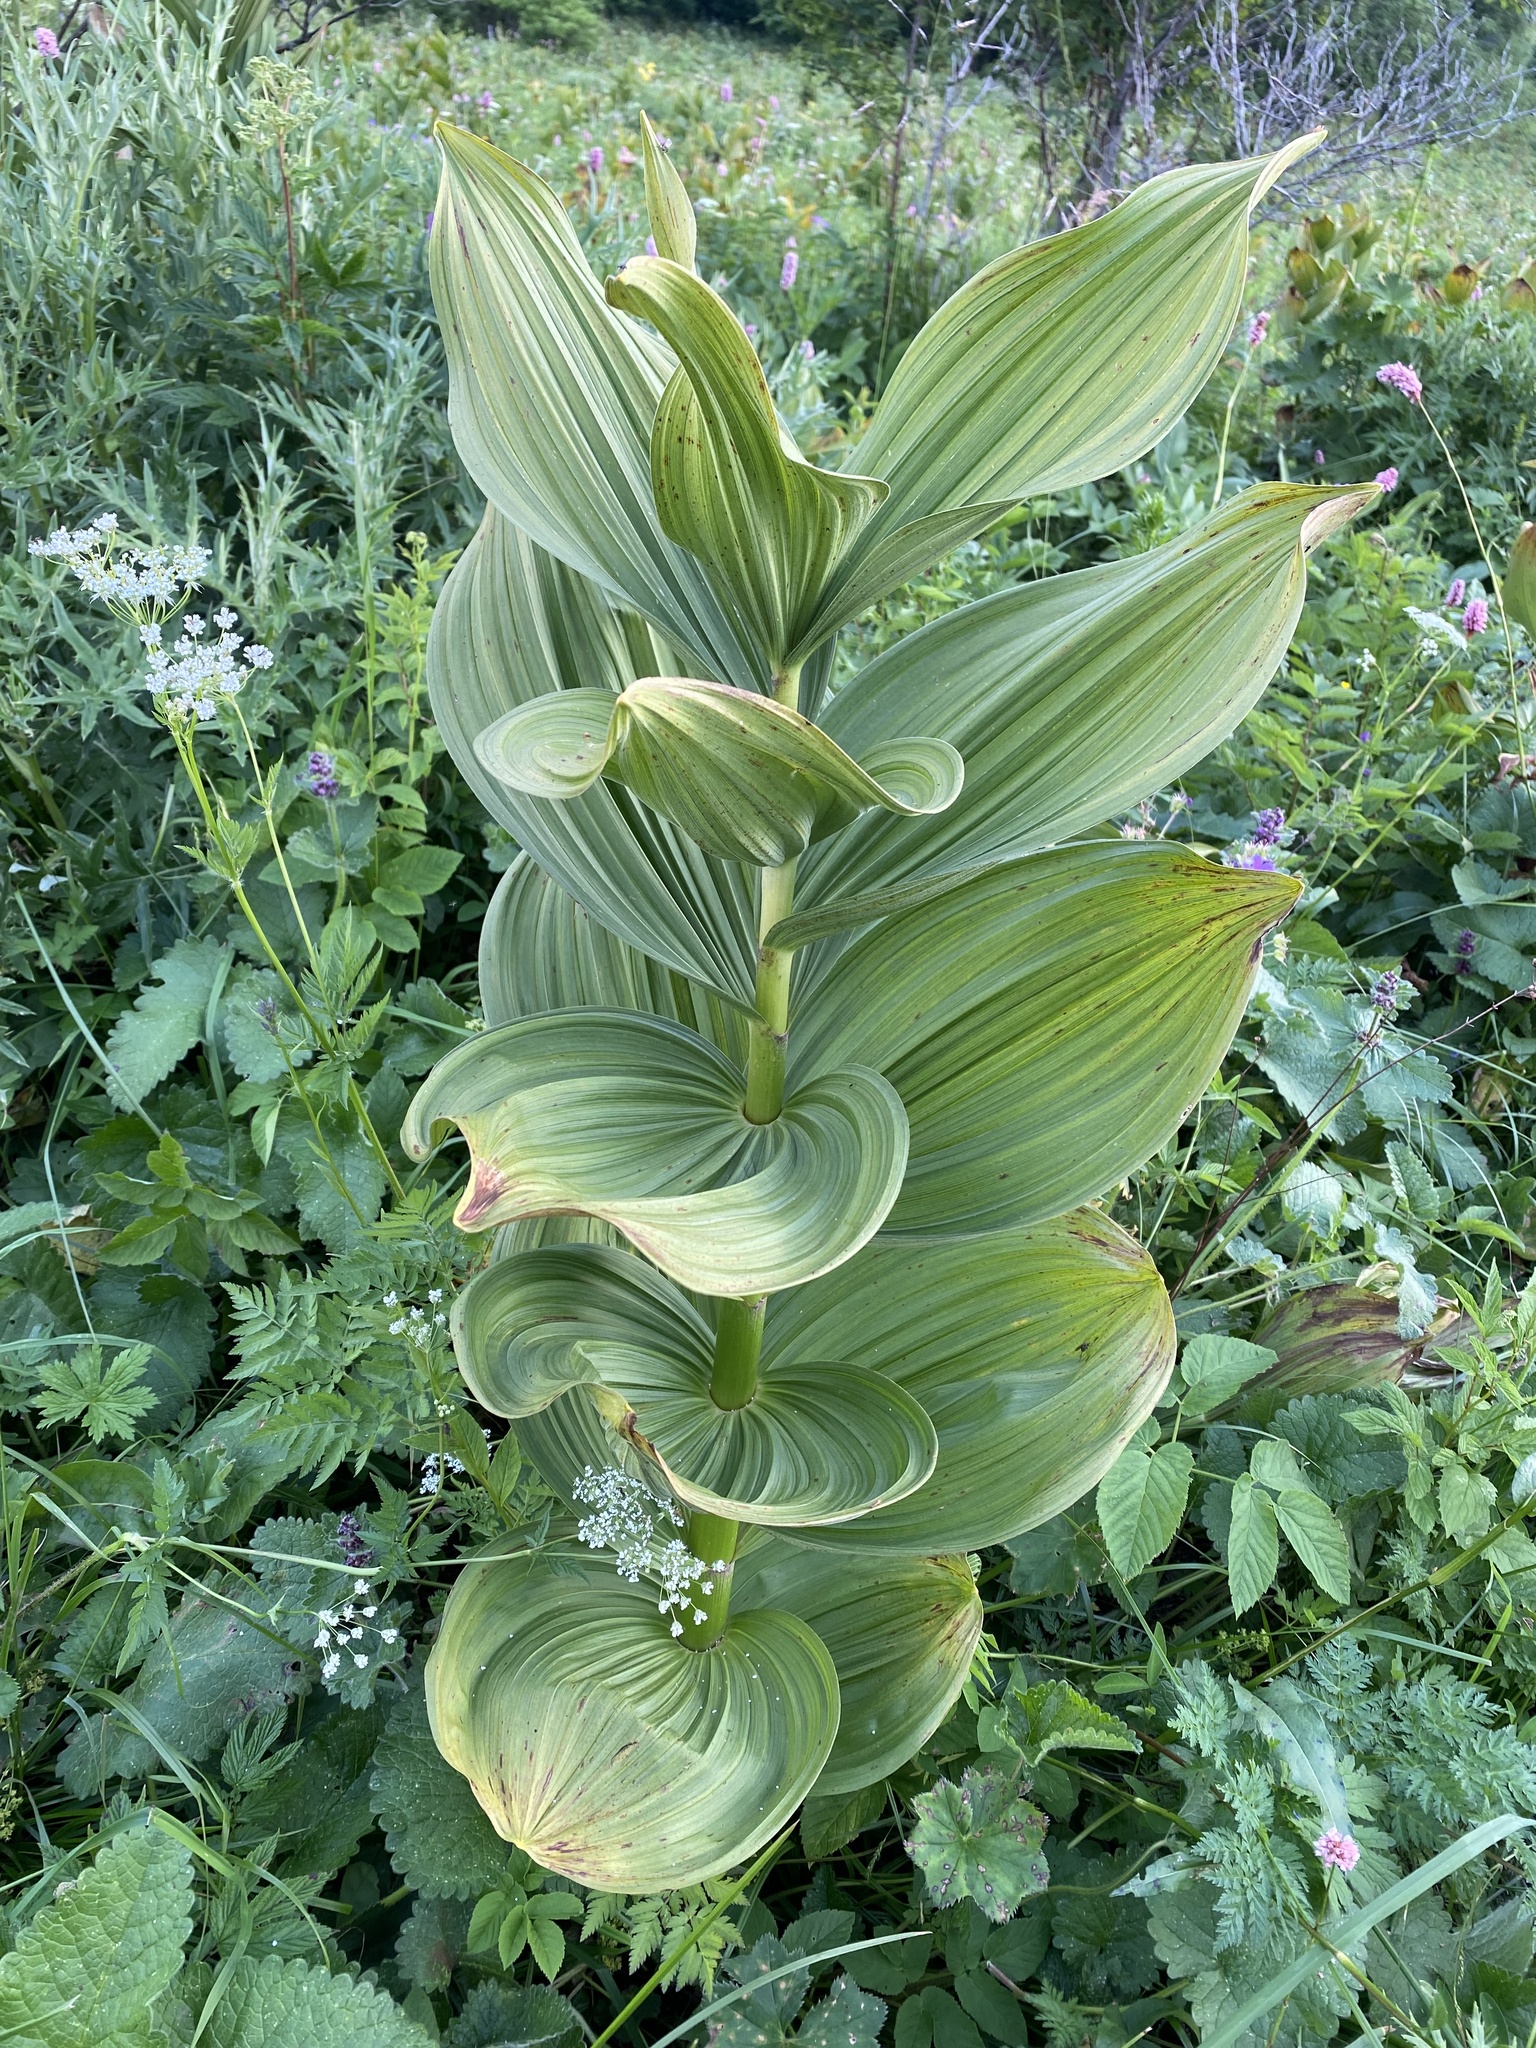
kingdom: Plantae
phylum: Tracheophyta
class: Liliopsida
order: Liliales
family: Melanthiaceae
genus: Veratrum
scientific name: Veratrum lobelianum
